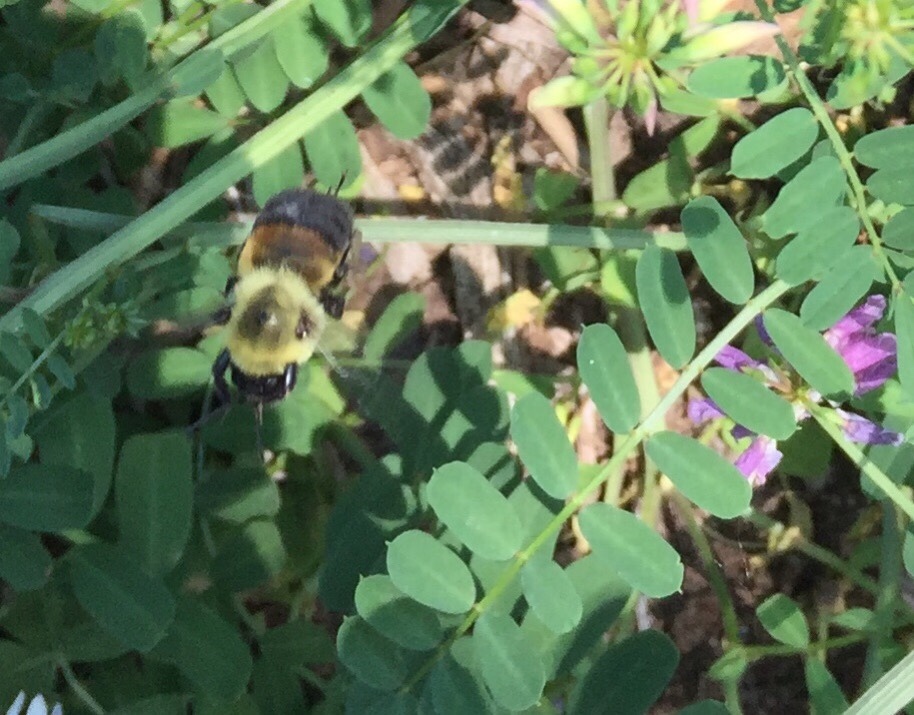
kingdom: Animalia
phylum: Arthropoda
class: Insecta
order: Hymenoptera
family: Apidae
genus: Bombus
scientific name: Bombus griseocollis
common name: Brown-belted bumble bee
